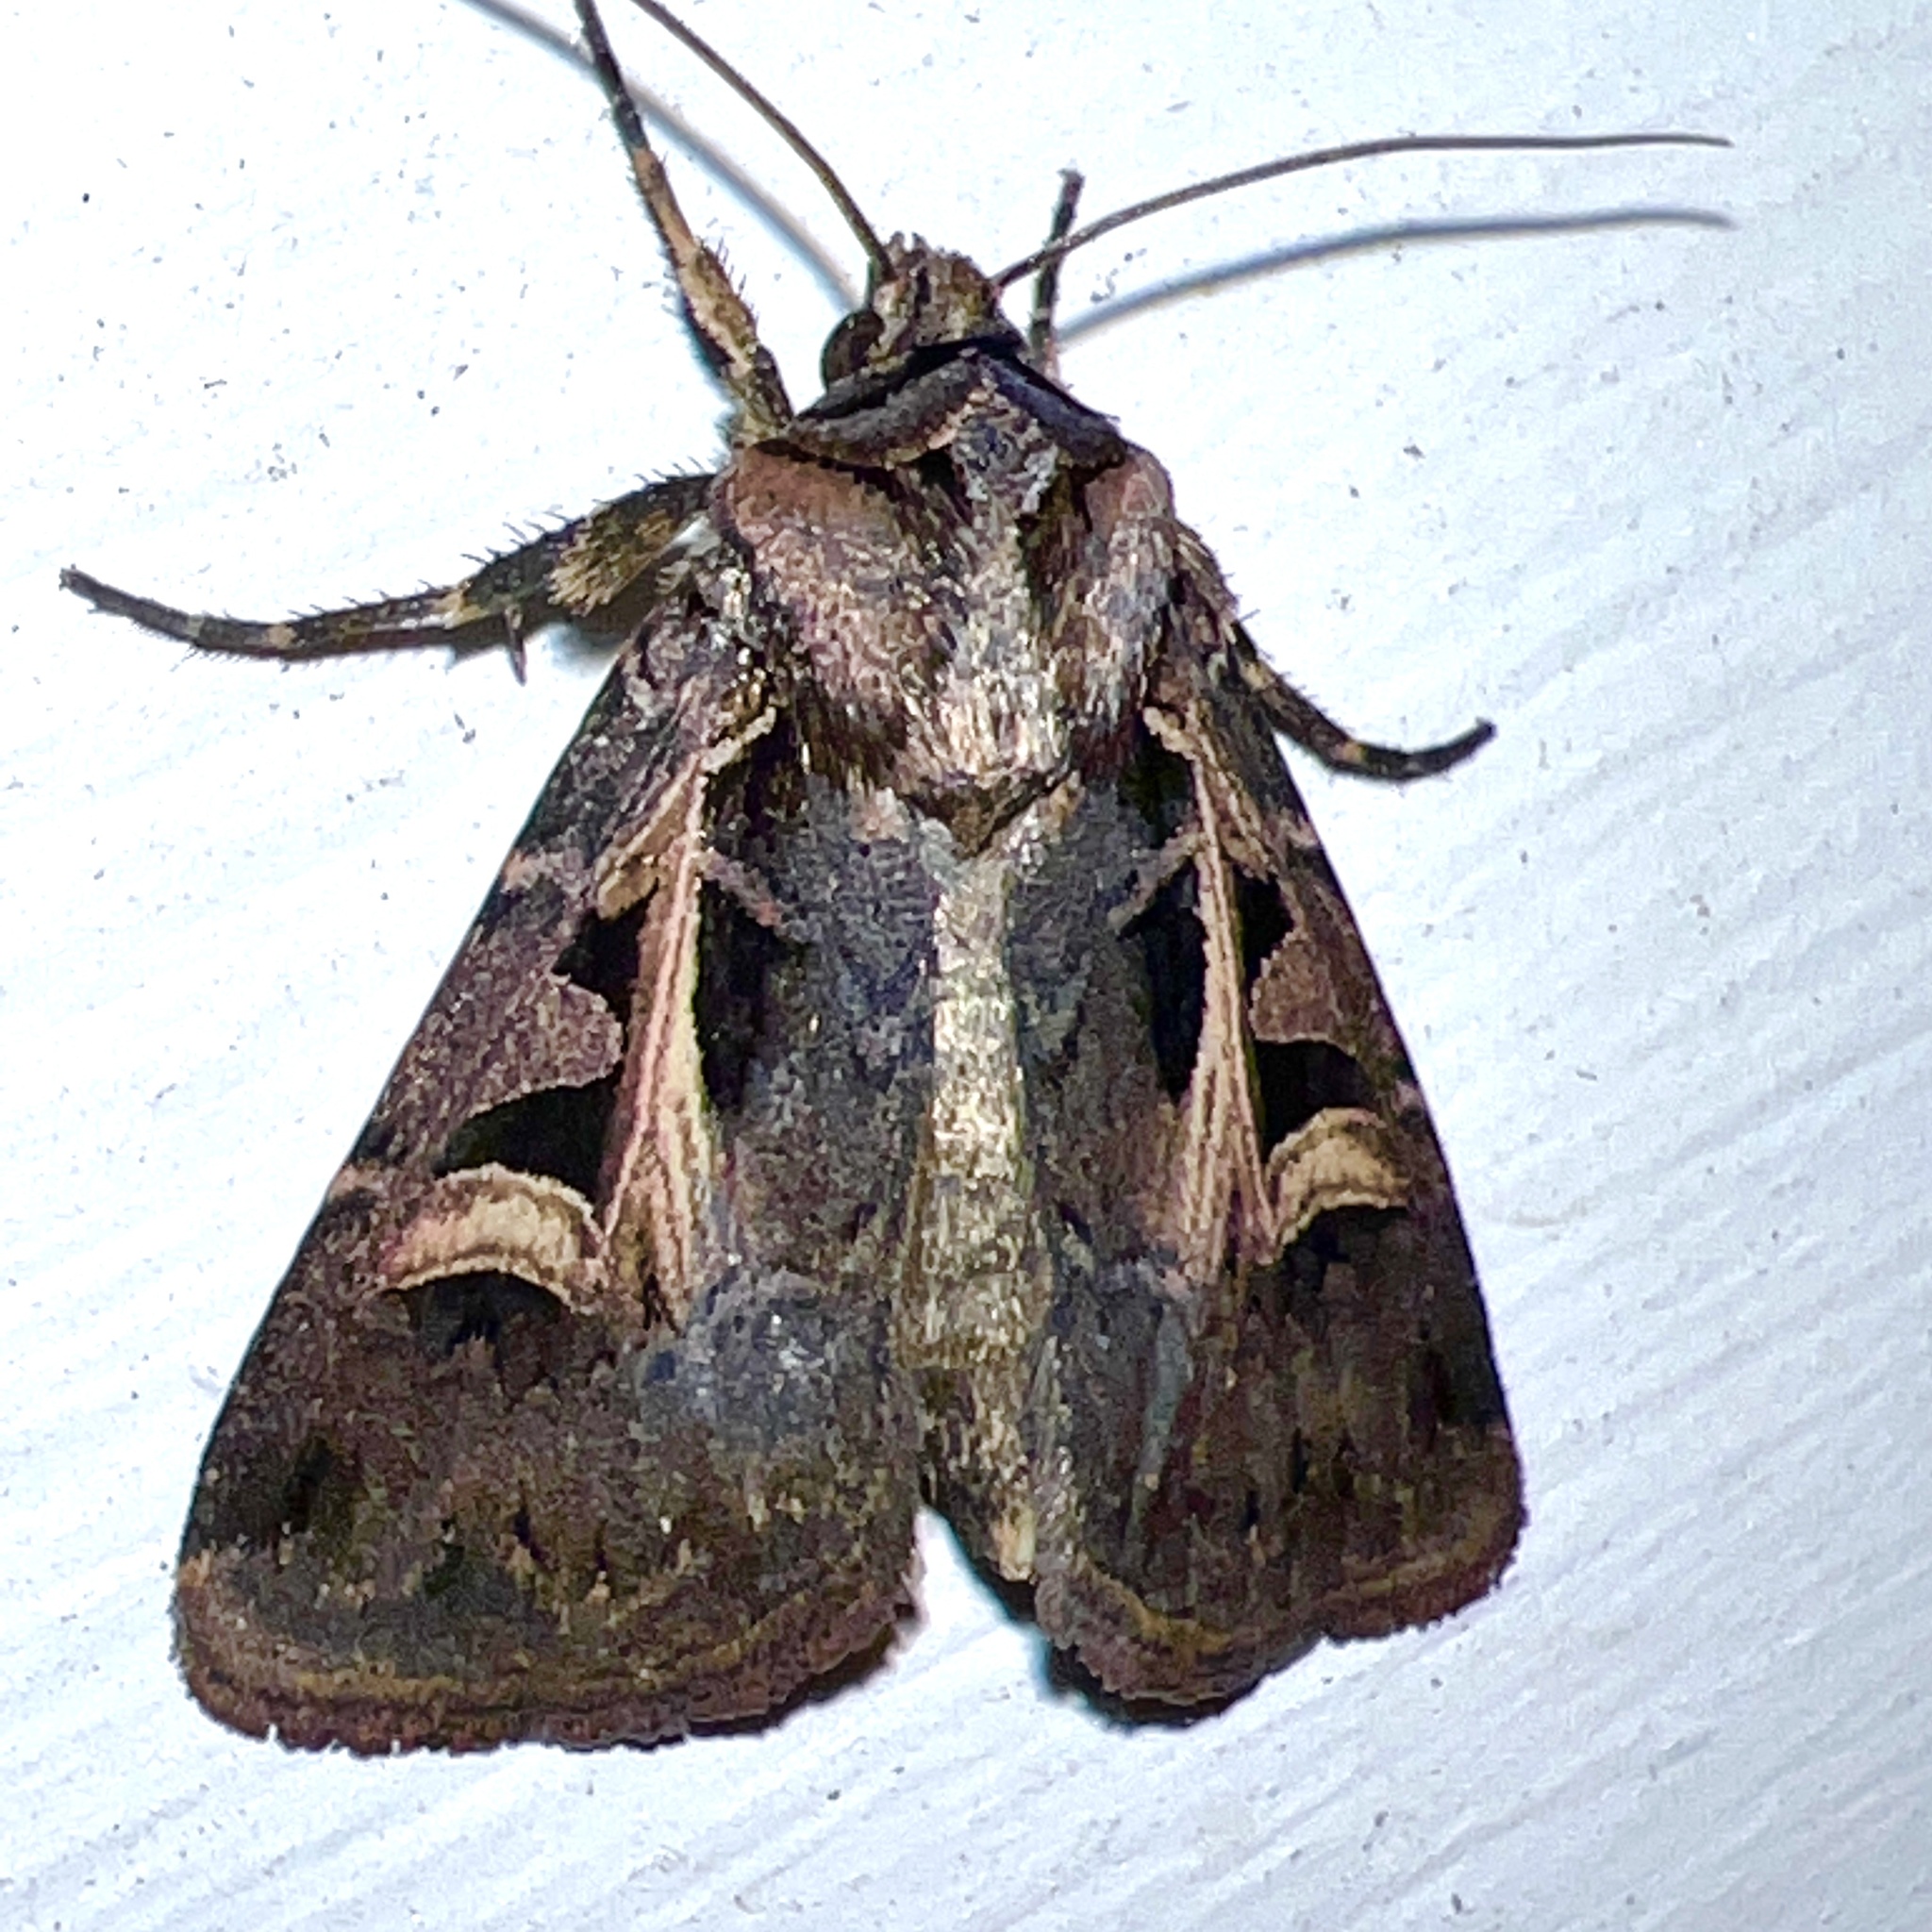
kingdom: Animalia
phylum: Arthropoda
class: Insecta
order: Lepidoptera
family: Noctuidae
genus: Feltia
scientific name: Feltia herilis
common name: Master's dart
